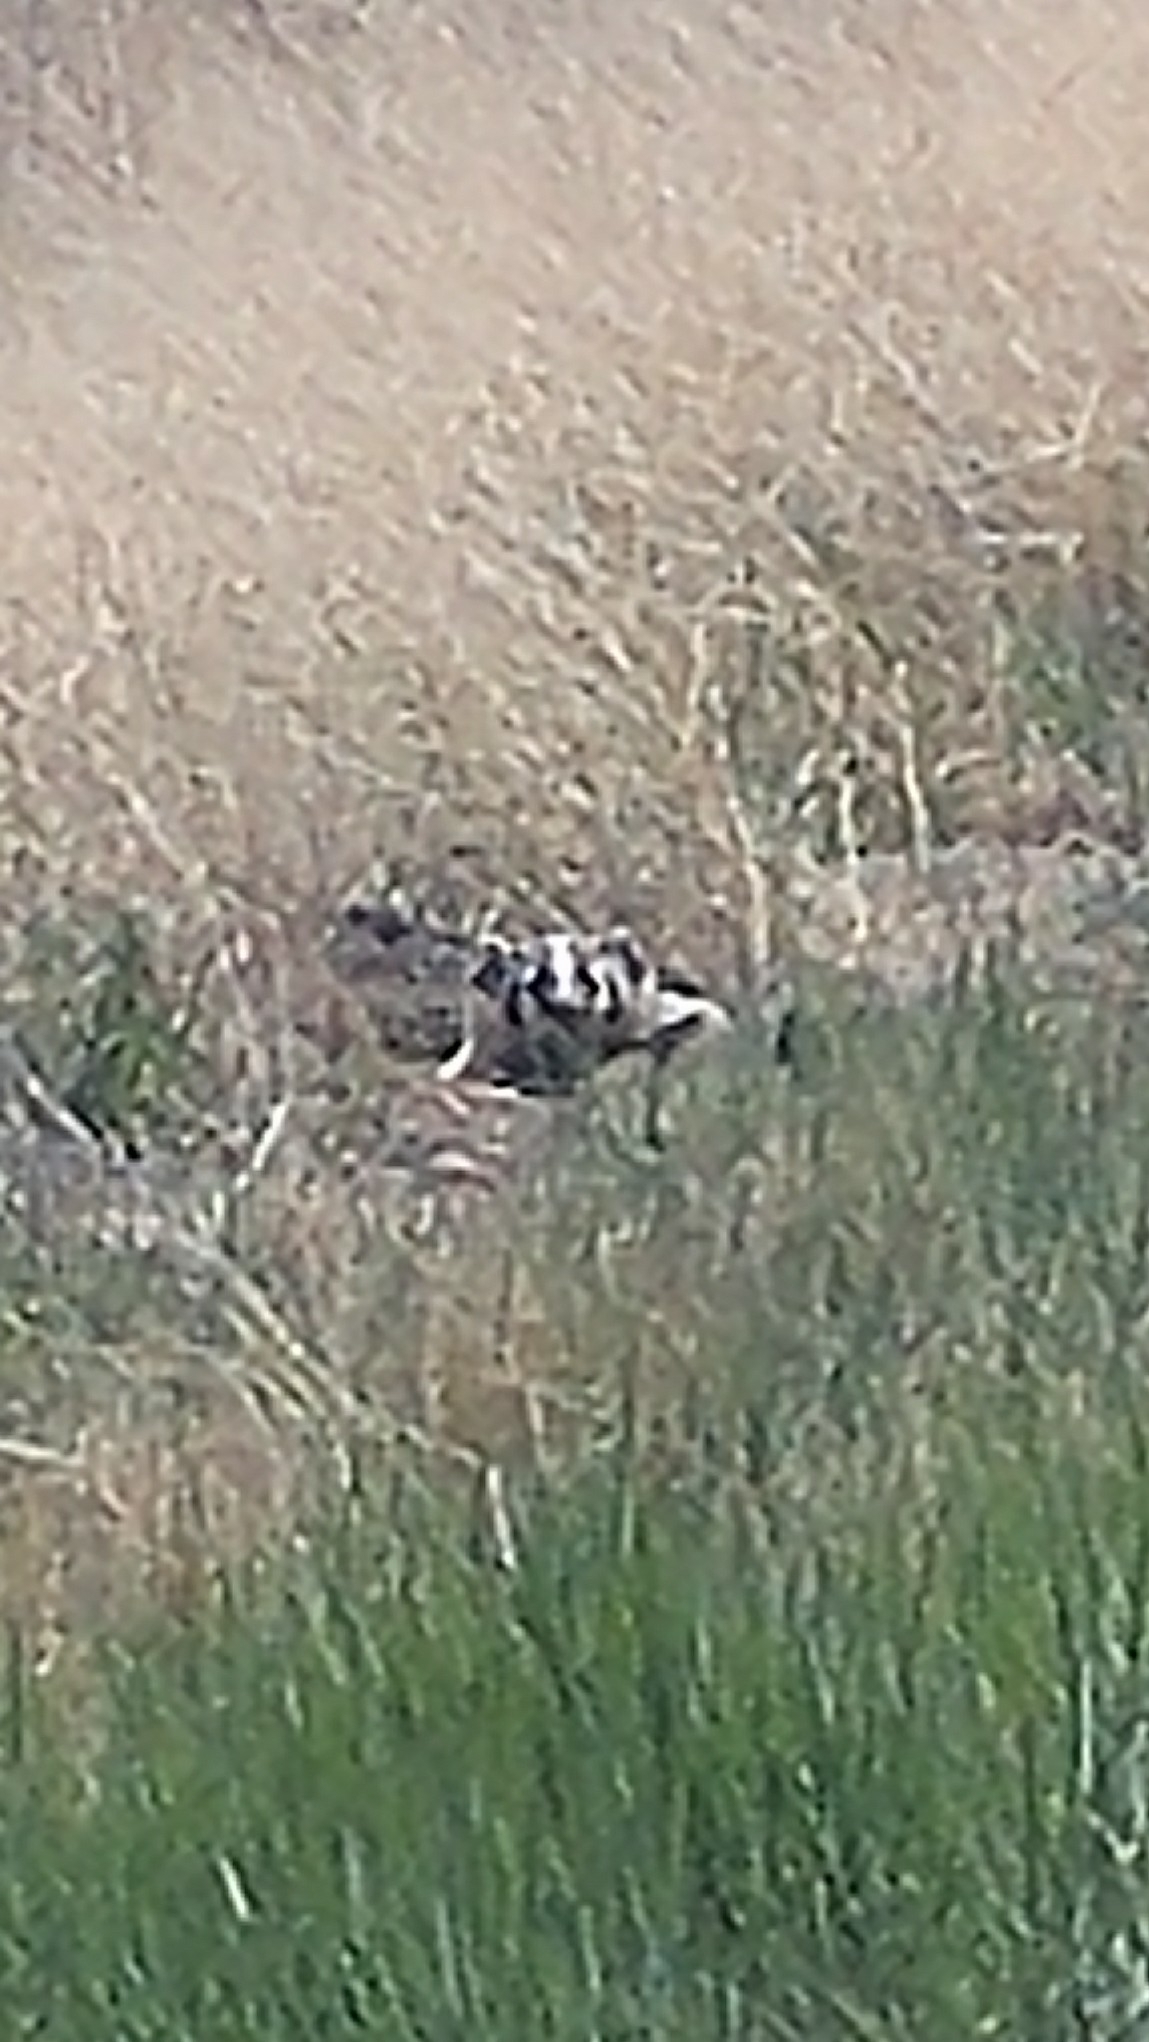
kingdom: Animalia
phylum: Chordata
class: Mammalia
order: Carnivora
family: Mustelidae
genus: Taxidea
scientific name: Taxidea taxus
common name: American badger
